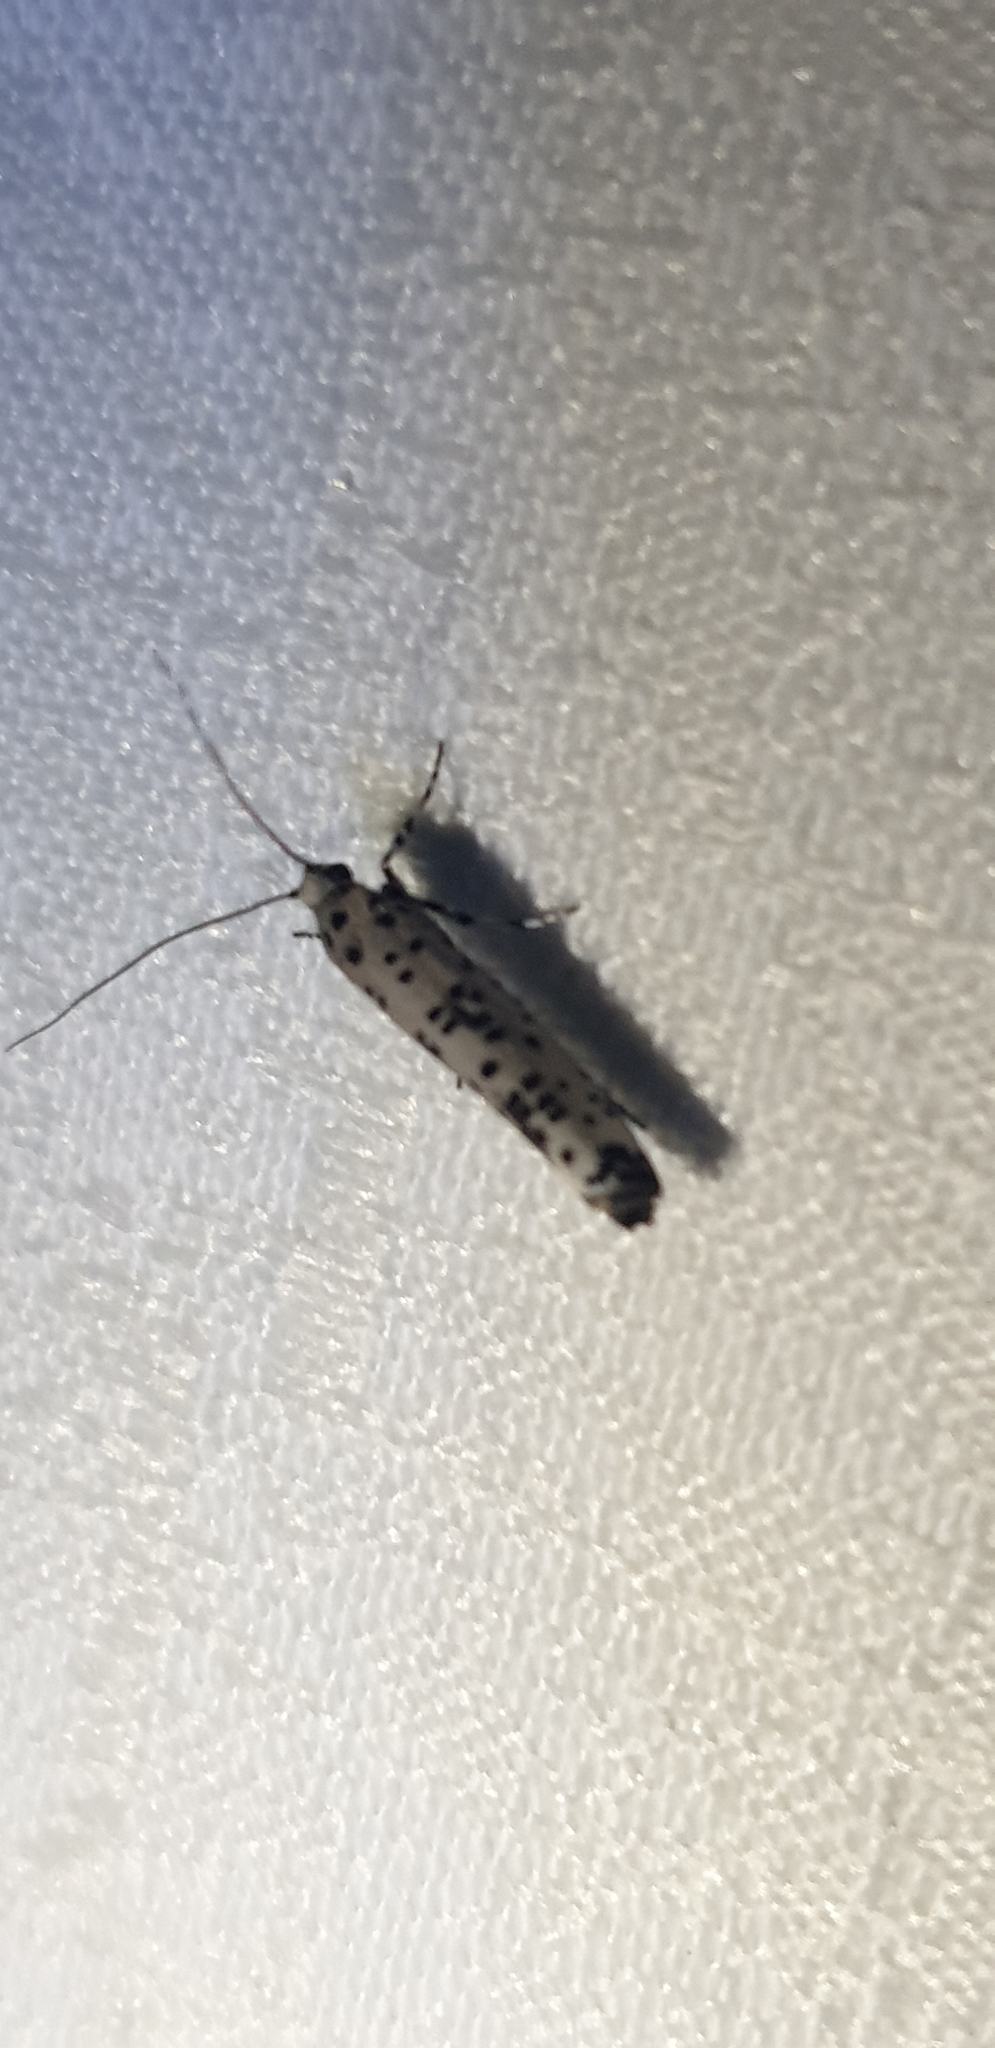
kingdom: Animalia
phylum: Arthropoda
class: Insecta
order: Lepidoptera
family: Yponomeutidae
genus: Yponomeuta
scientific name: Yponomeuta pustulellus
